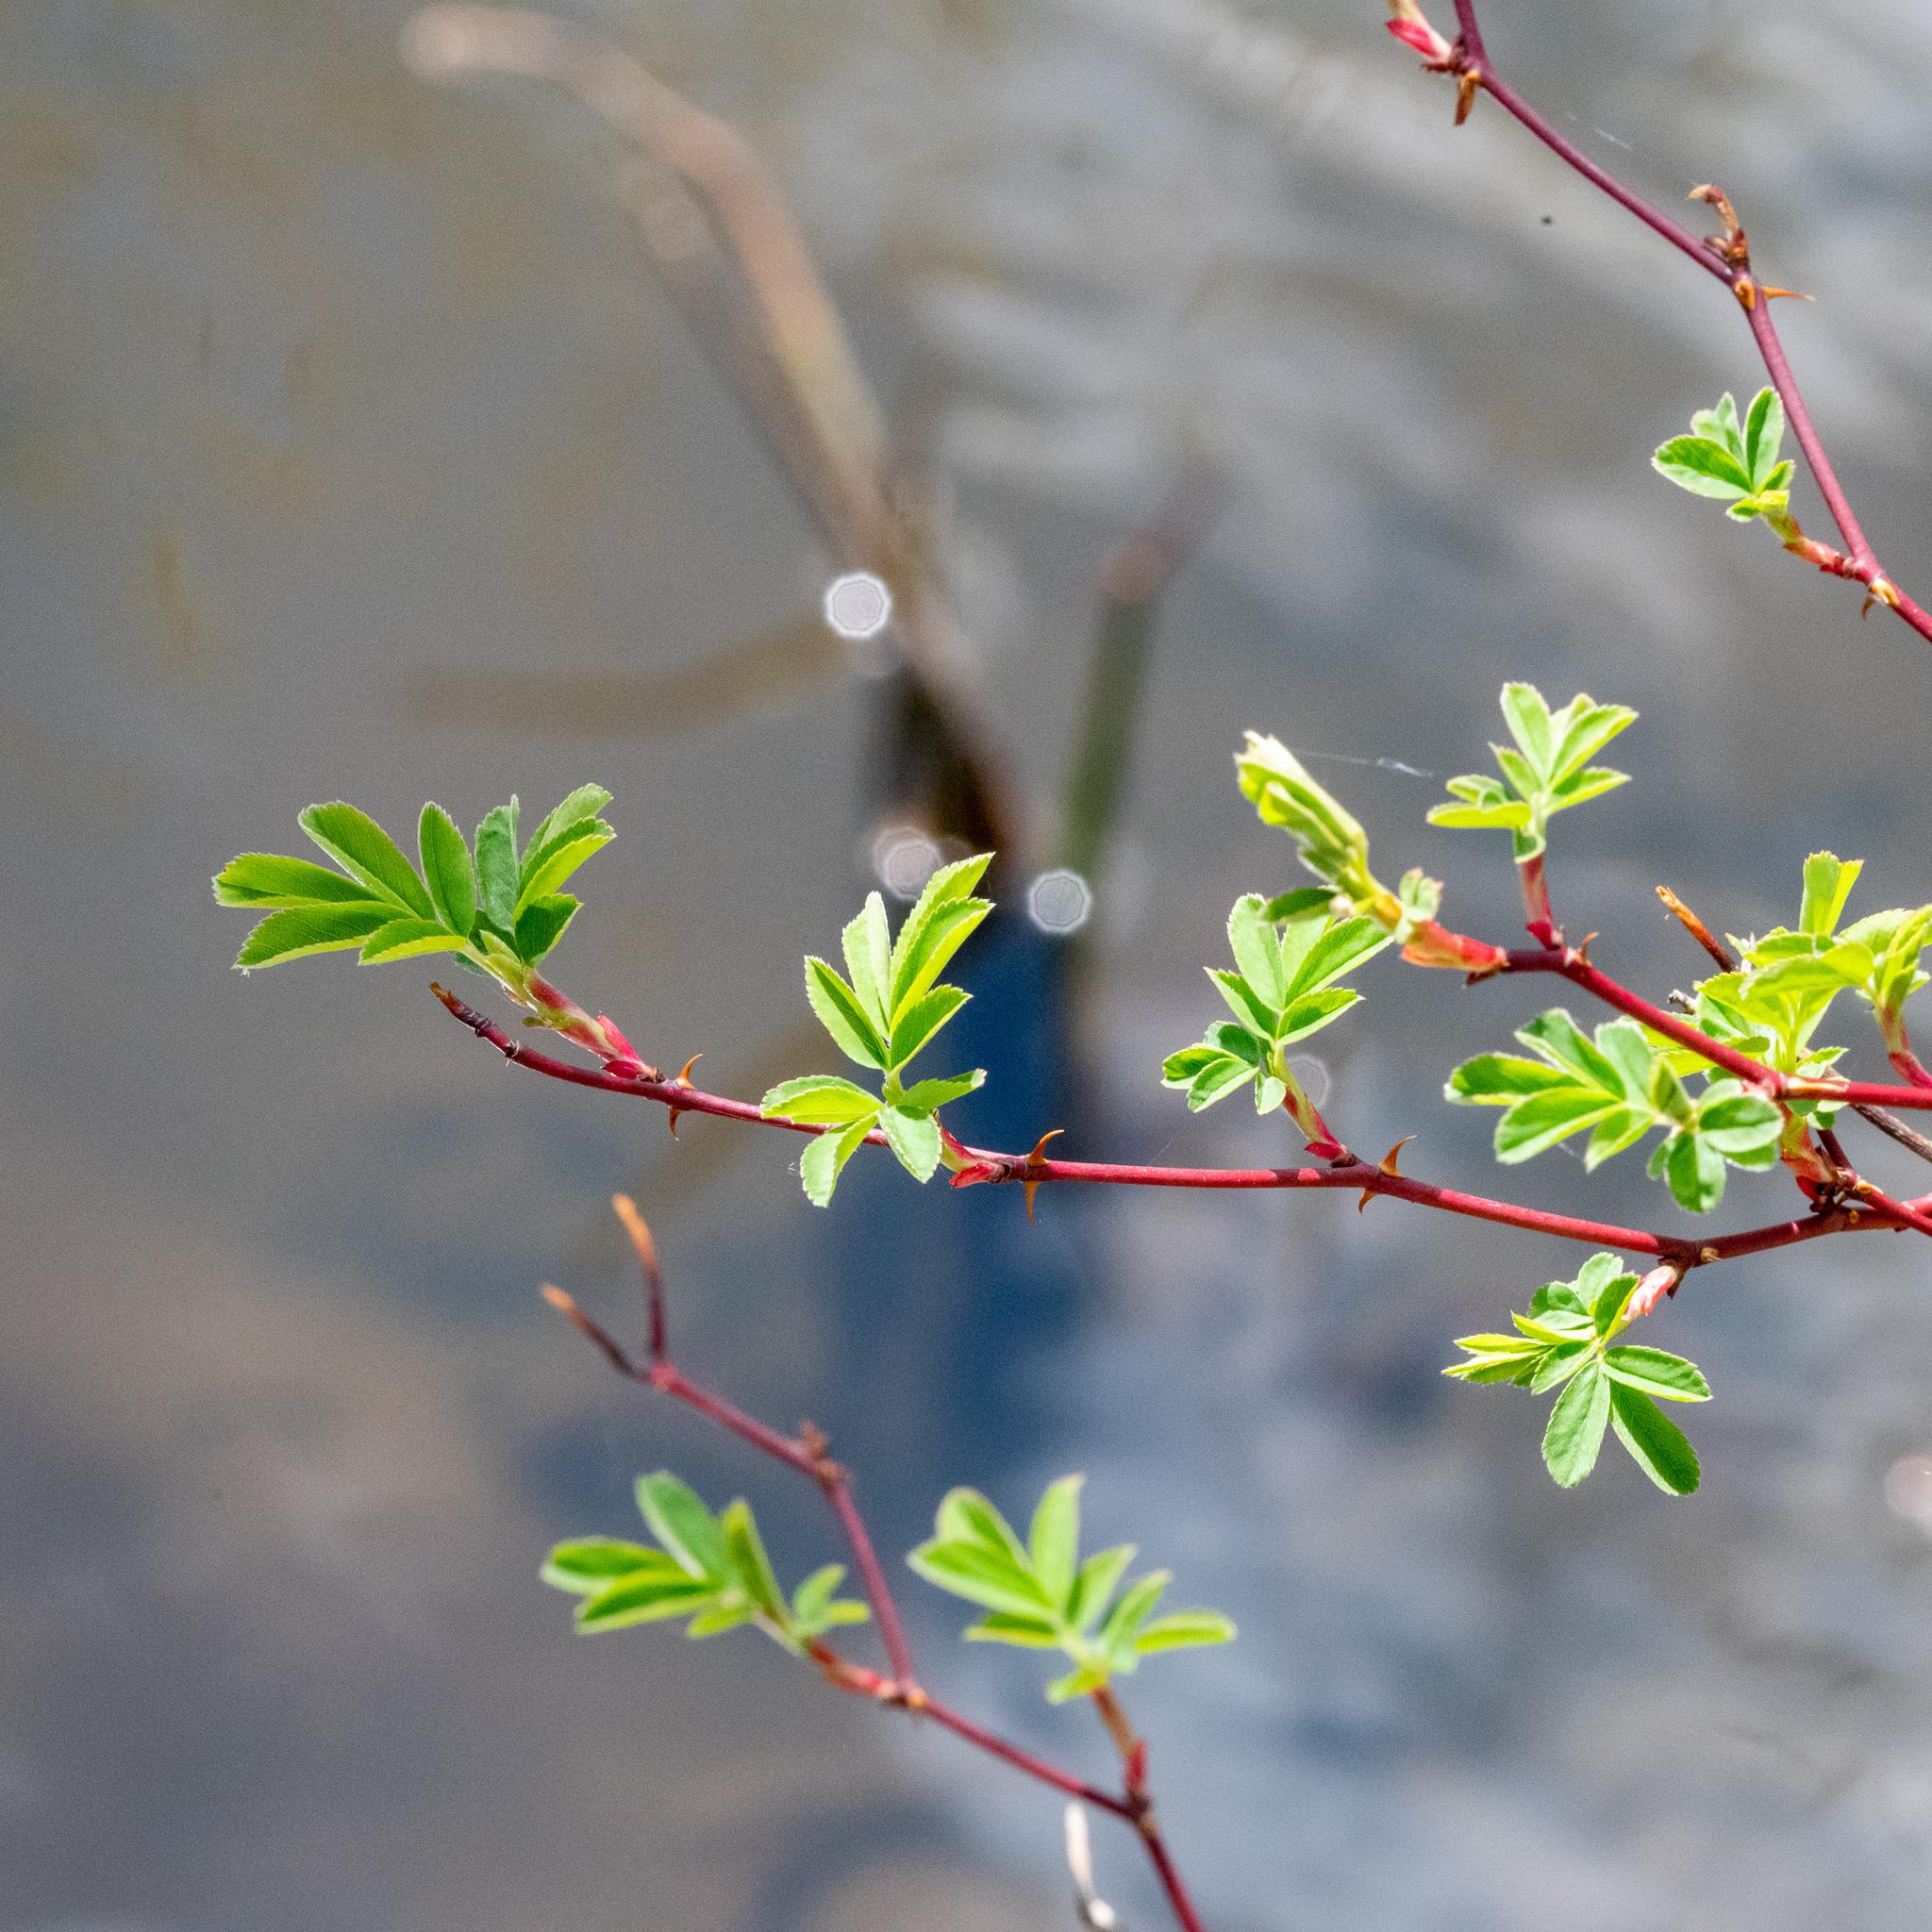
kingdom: Plantae
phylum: Tracheophyta
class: Magnoliopsida
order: Rosales
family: Rosaceae
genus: Rosa
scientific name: Rosa palustris
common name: Swamp rose
